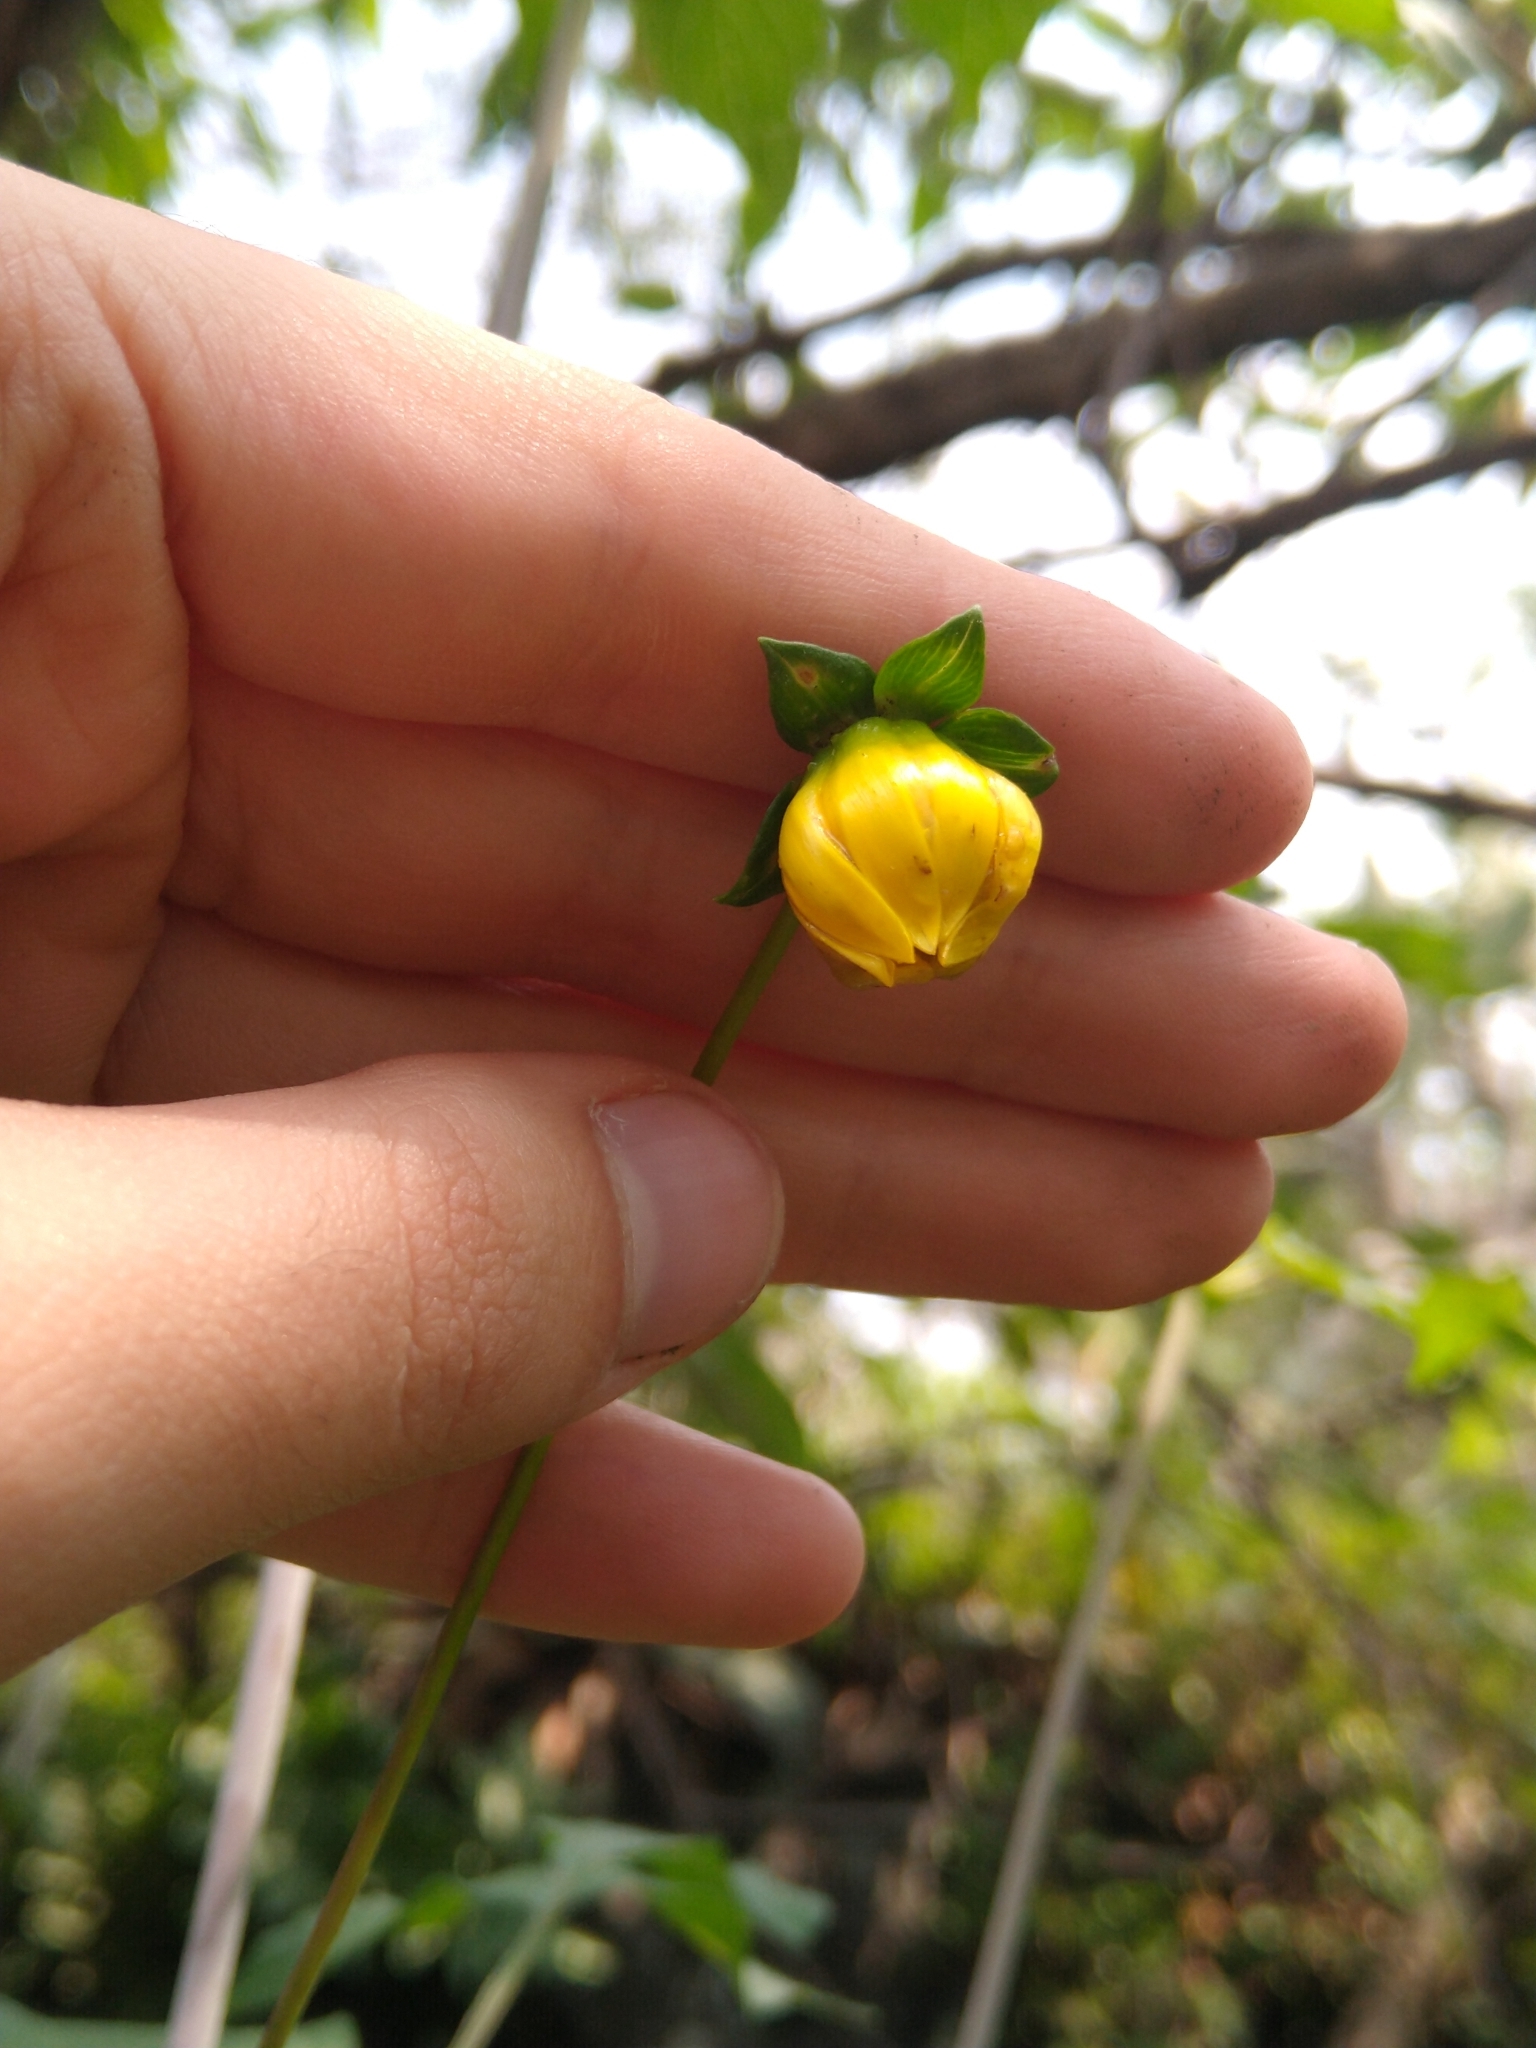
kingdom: Plantae
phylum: Tracheophyta
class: Magnoliopsida
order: Asterales
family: Asteraceae
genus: Dahlia
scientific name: Dahlia coccinea
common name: Red dahlia
